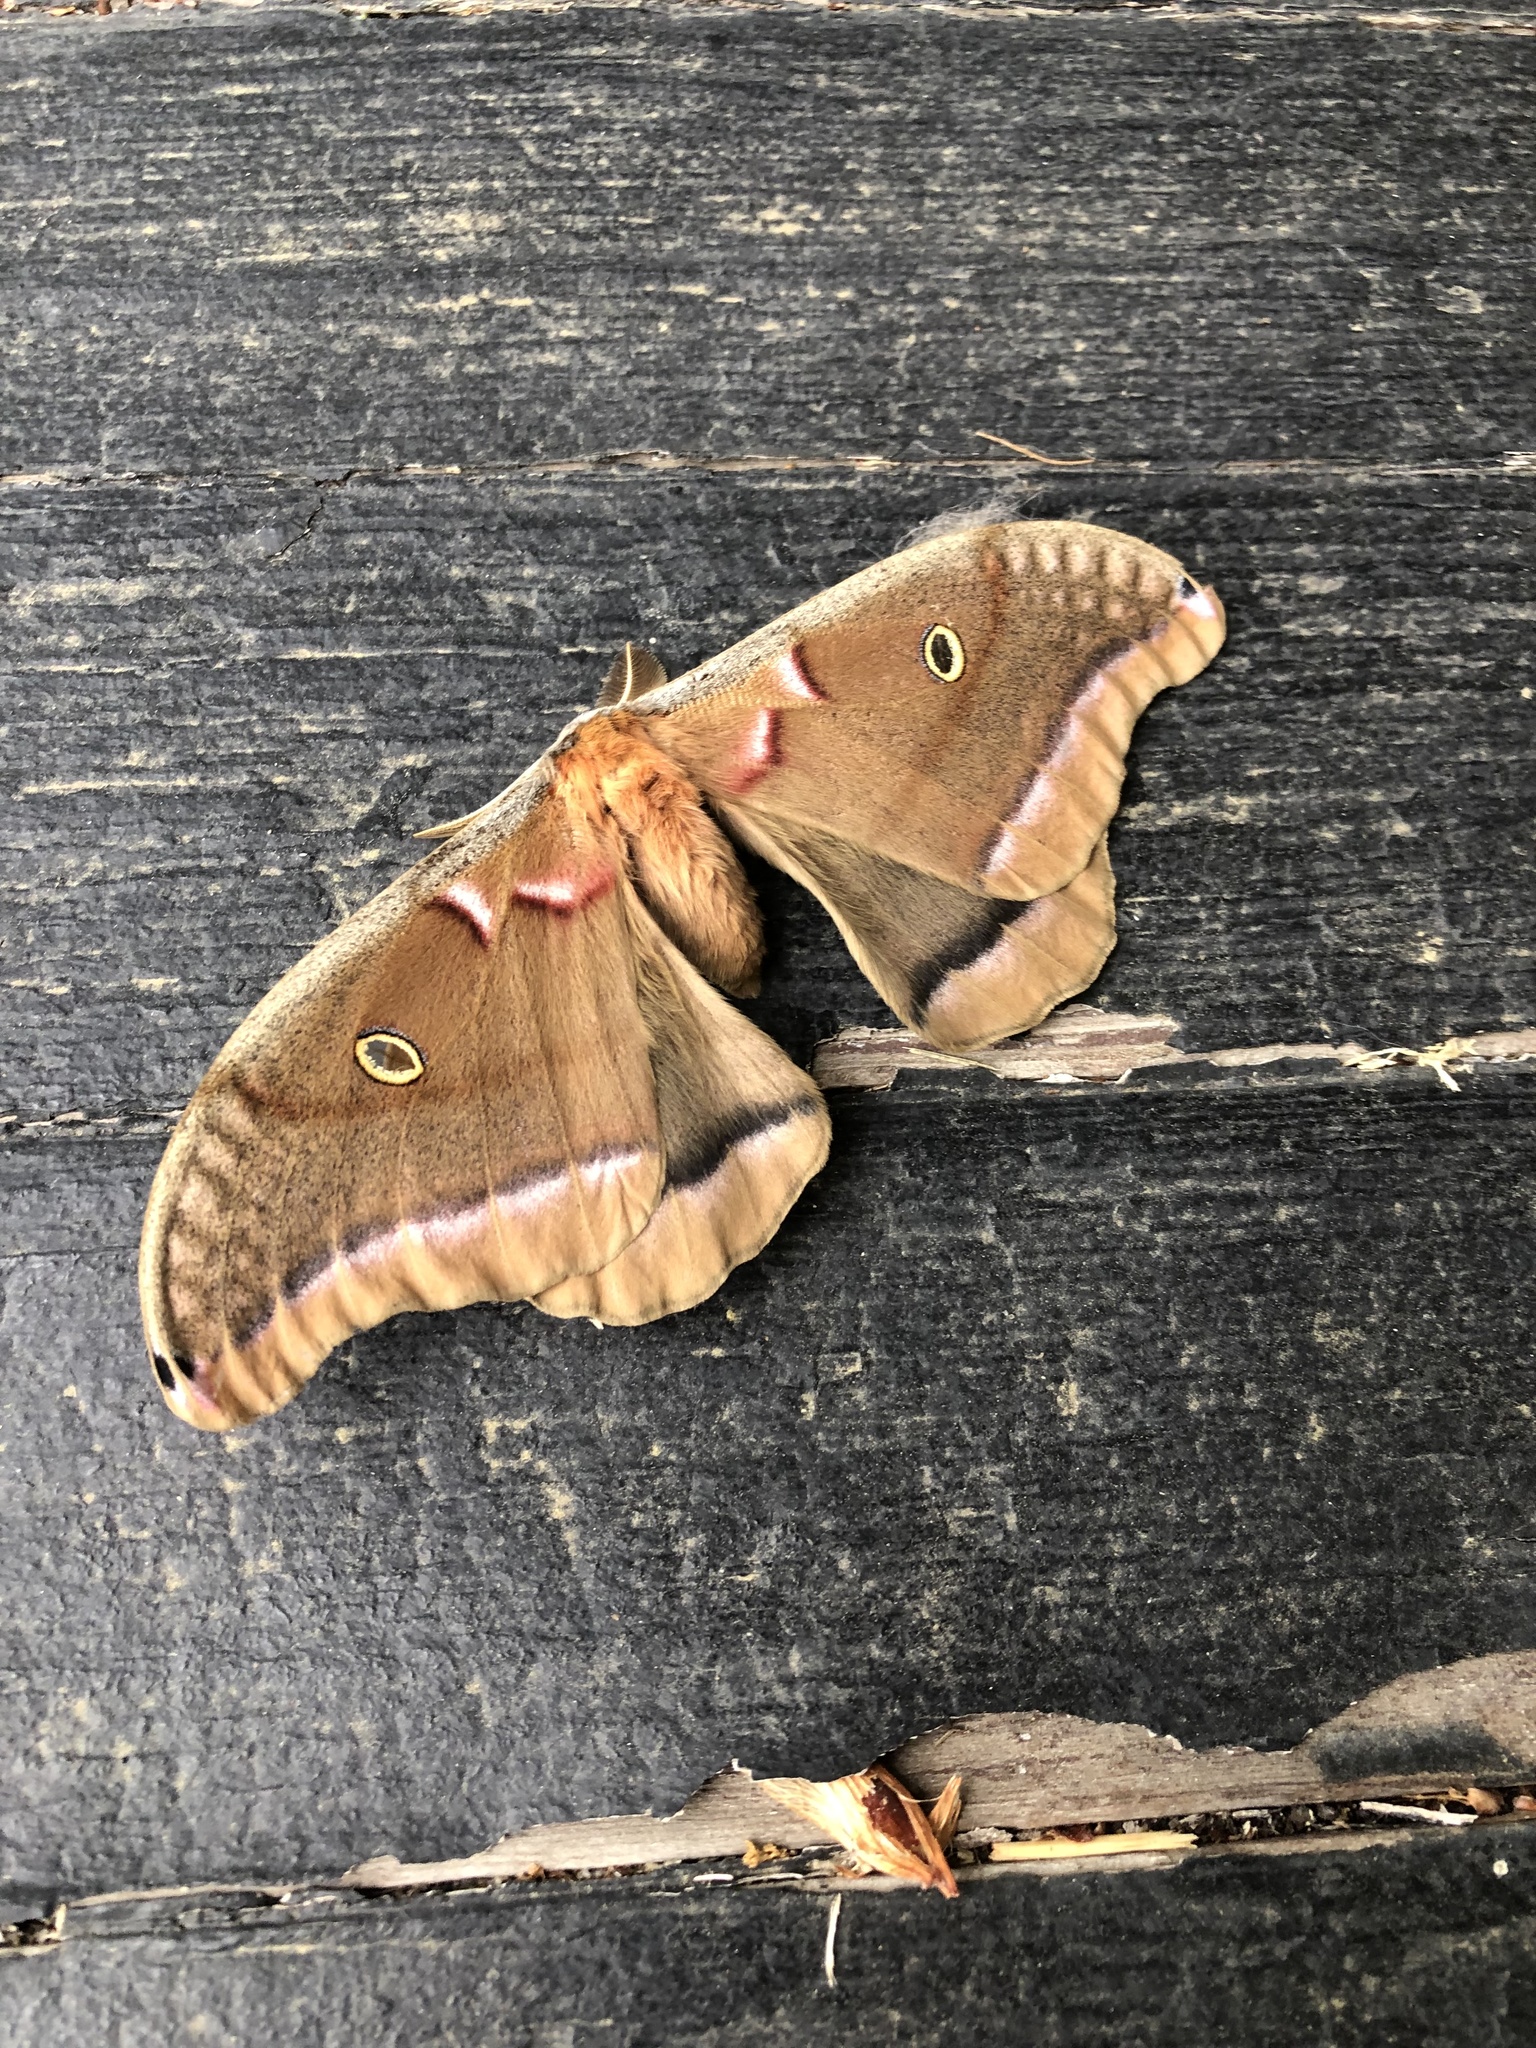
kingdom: Animalia
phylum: Arthropoda
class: Insecta
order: Lepidoptera
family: Saturniidae
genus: Antheraea
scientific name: Antheraea polyphemus
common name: Polyphemus moth
